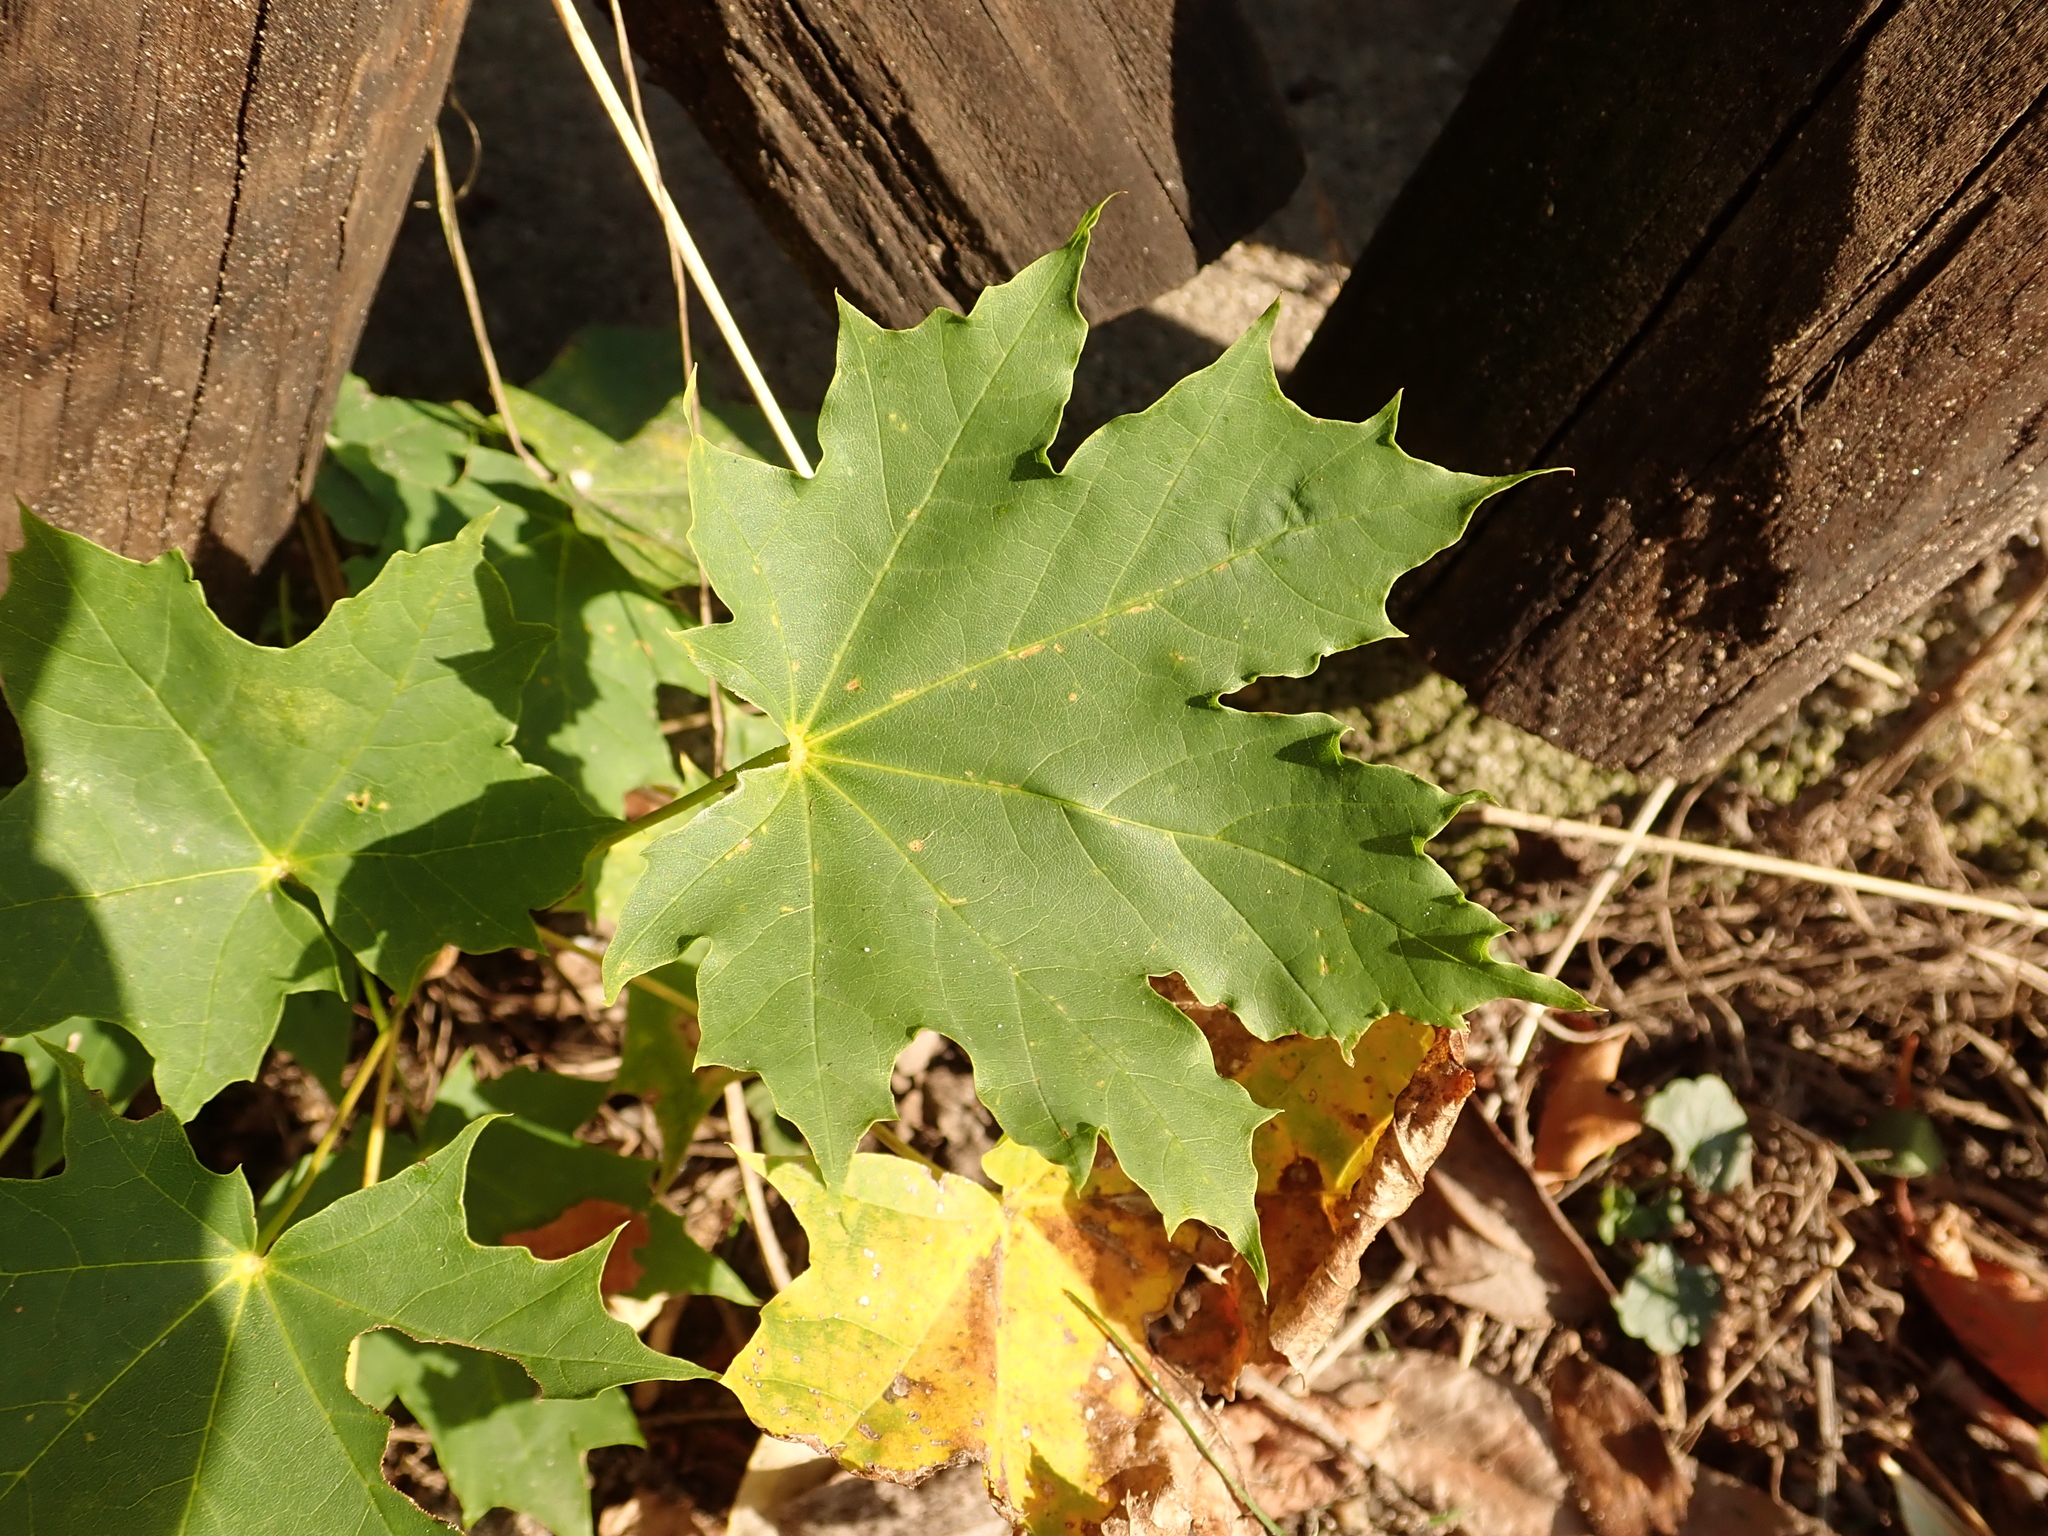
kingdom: Plantae
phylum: Tracheophyta
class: Magnoliopsida
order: Sapindales
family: Sapindaceae
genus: Acer
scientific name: Acer platanoides
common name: Norway maple
